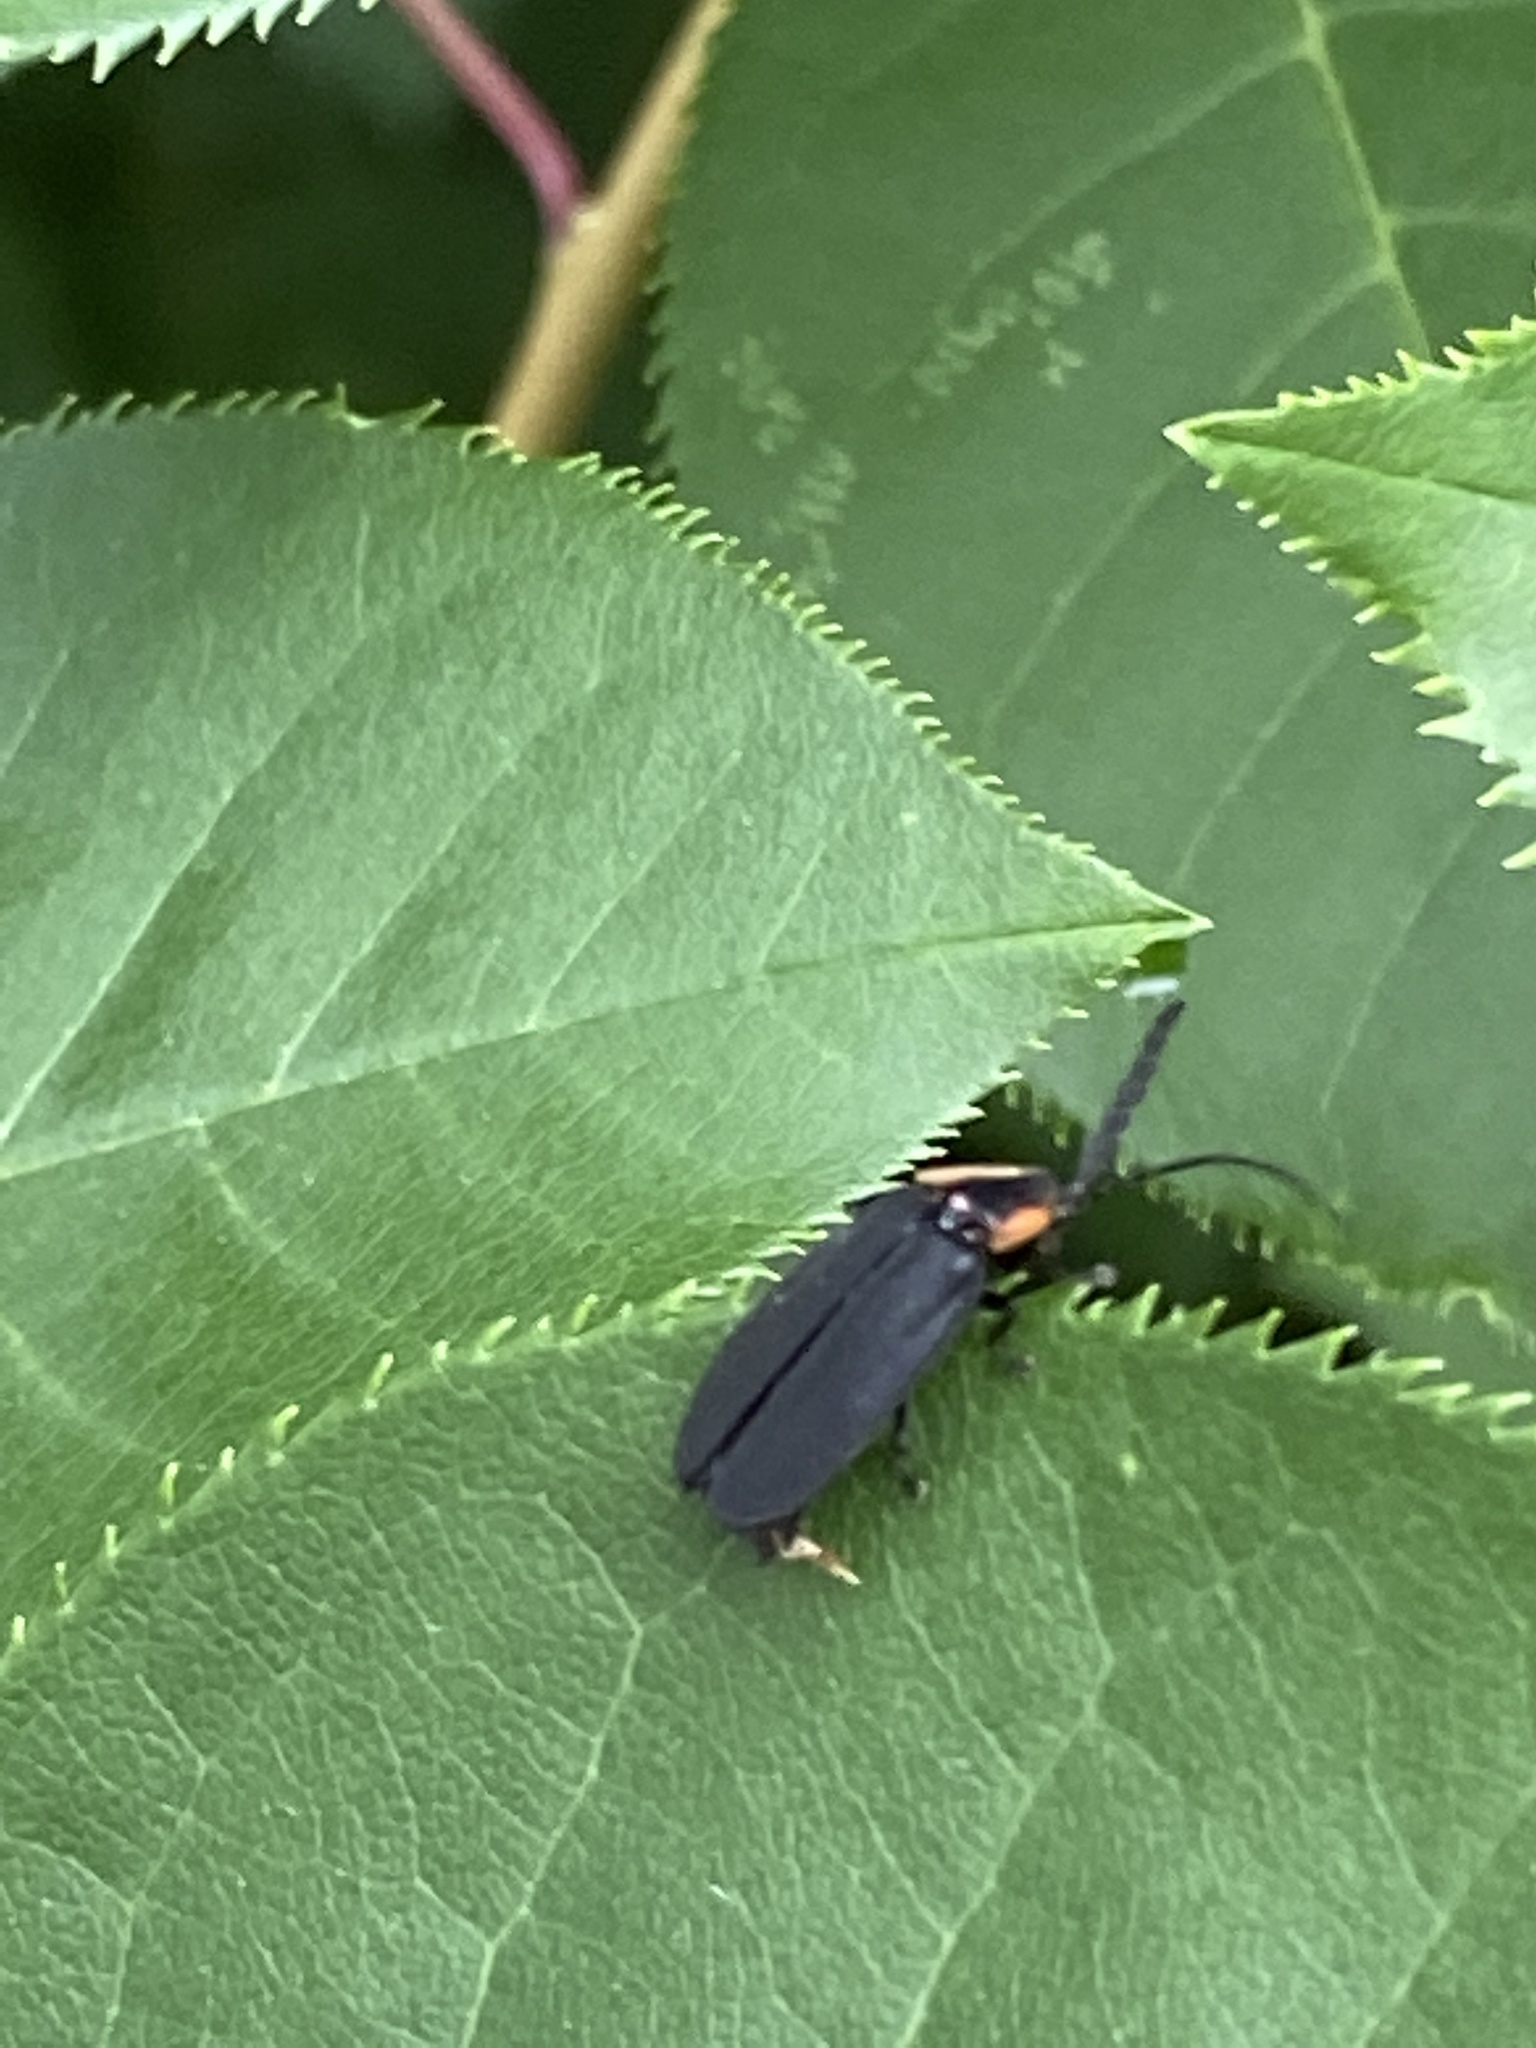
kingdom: Animalia
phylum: Arthropoda
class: Insecta
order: Coleoptera
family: Lampyridae
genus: Lucidota
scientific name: Lucidota atra
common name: Black firefly
